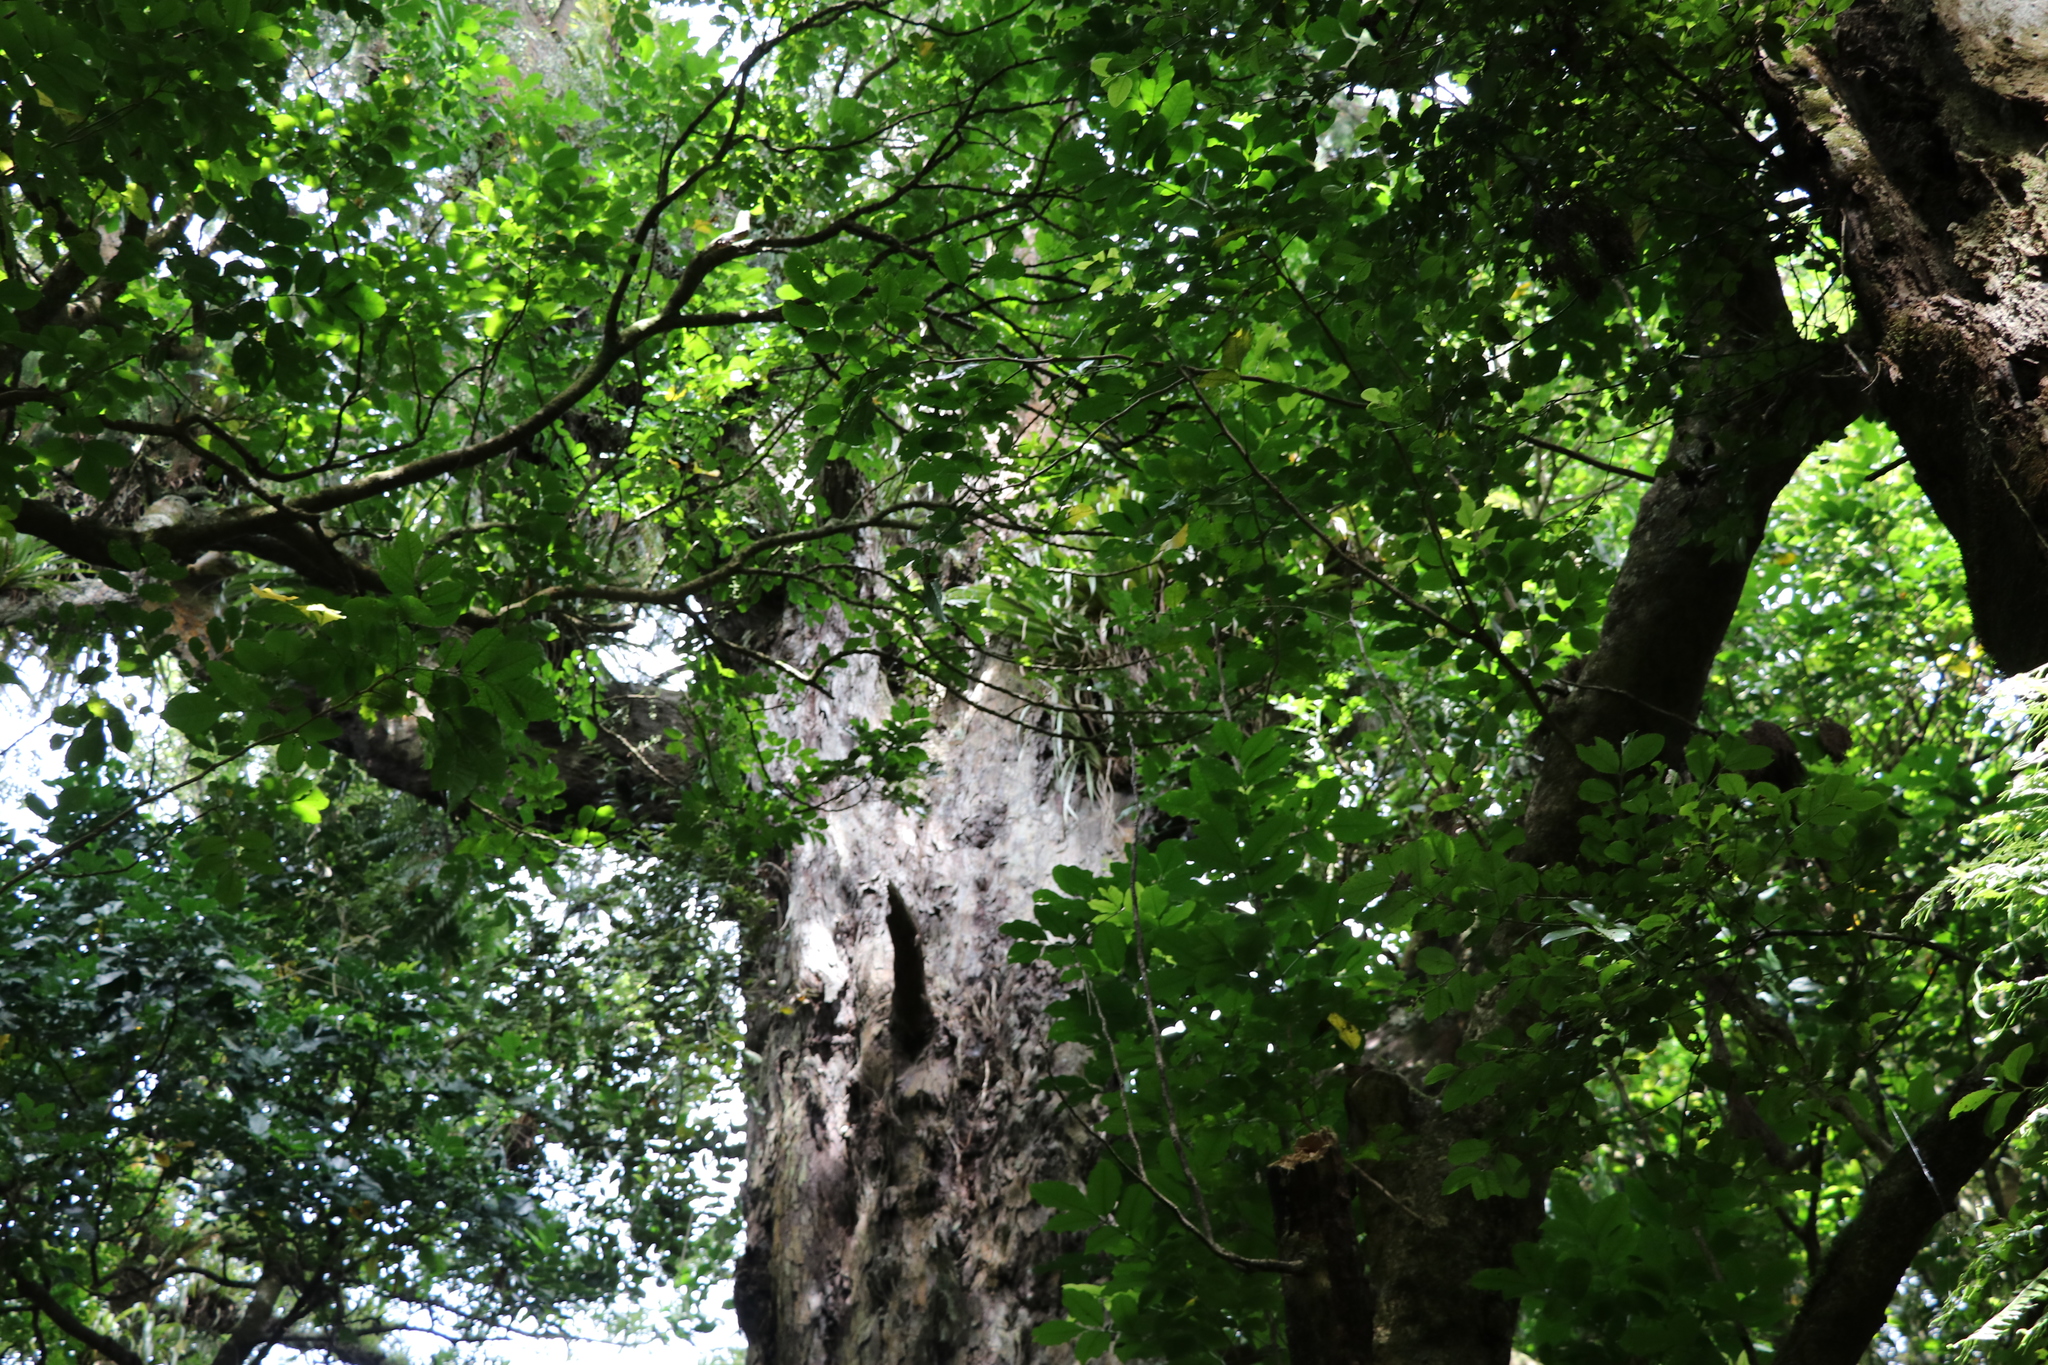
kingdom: Plantae
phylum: Tracheophyta
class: Pinopsida
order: Pinales
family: Podocarpaceae
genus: Dacrydium
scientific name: Dacrydium cupressinum
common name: Red pine
